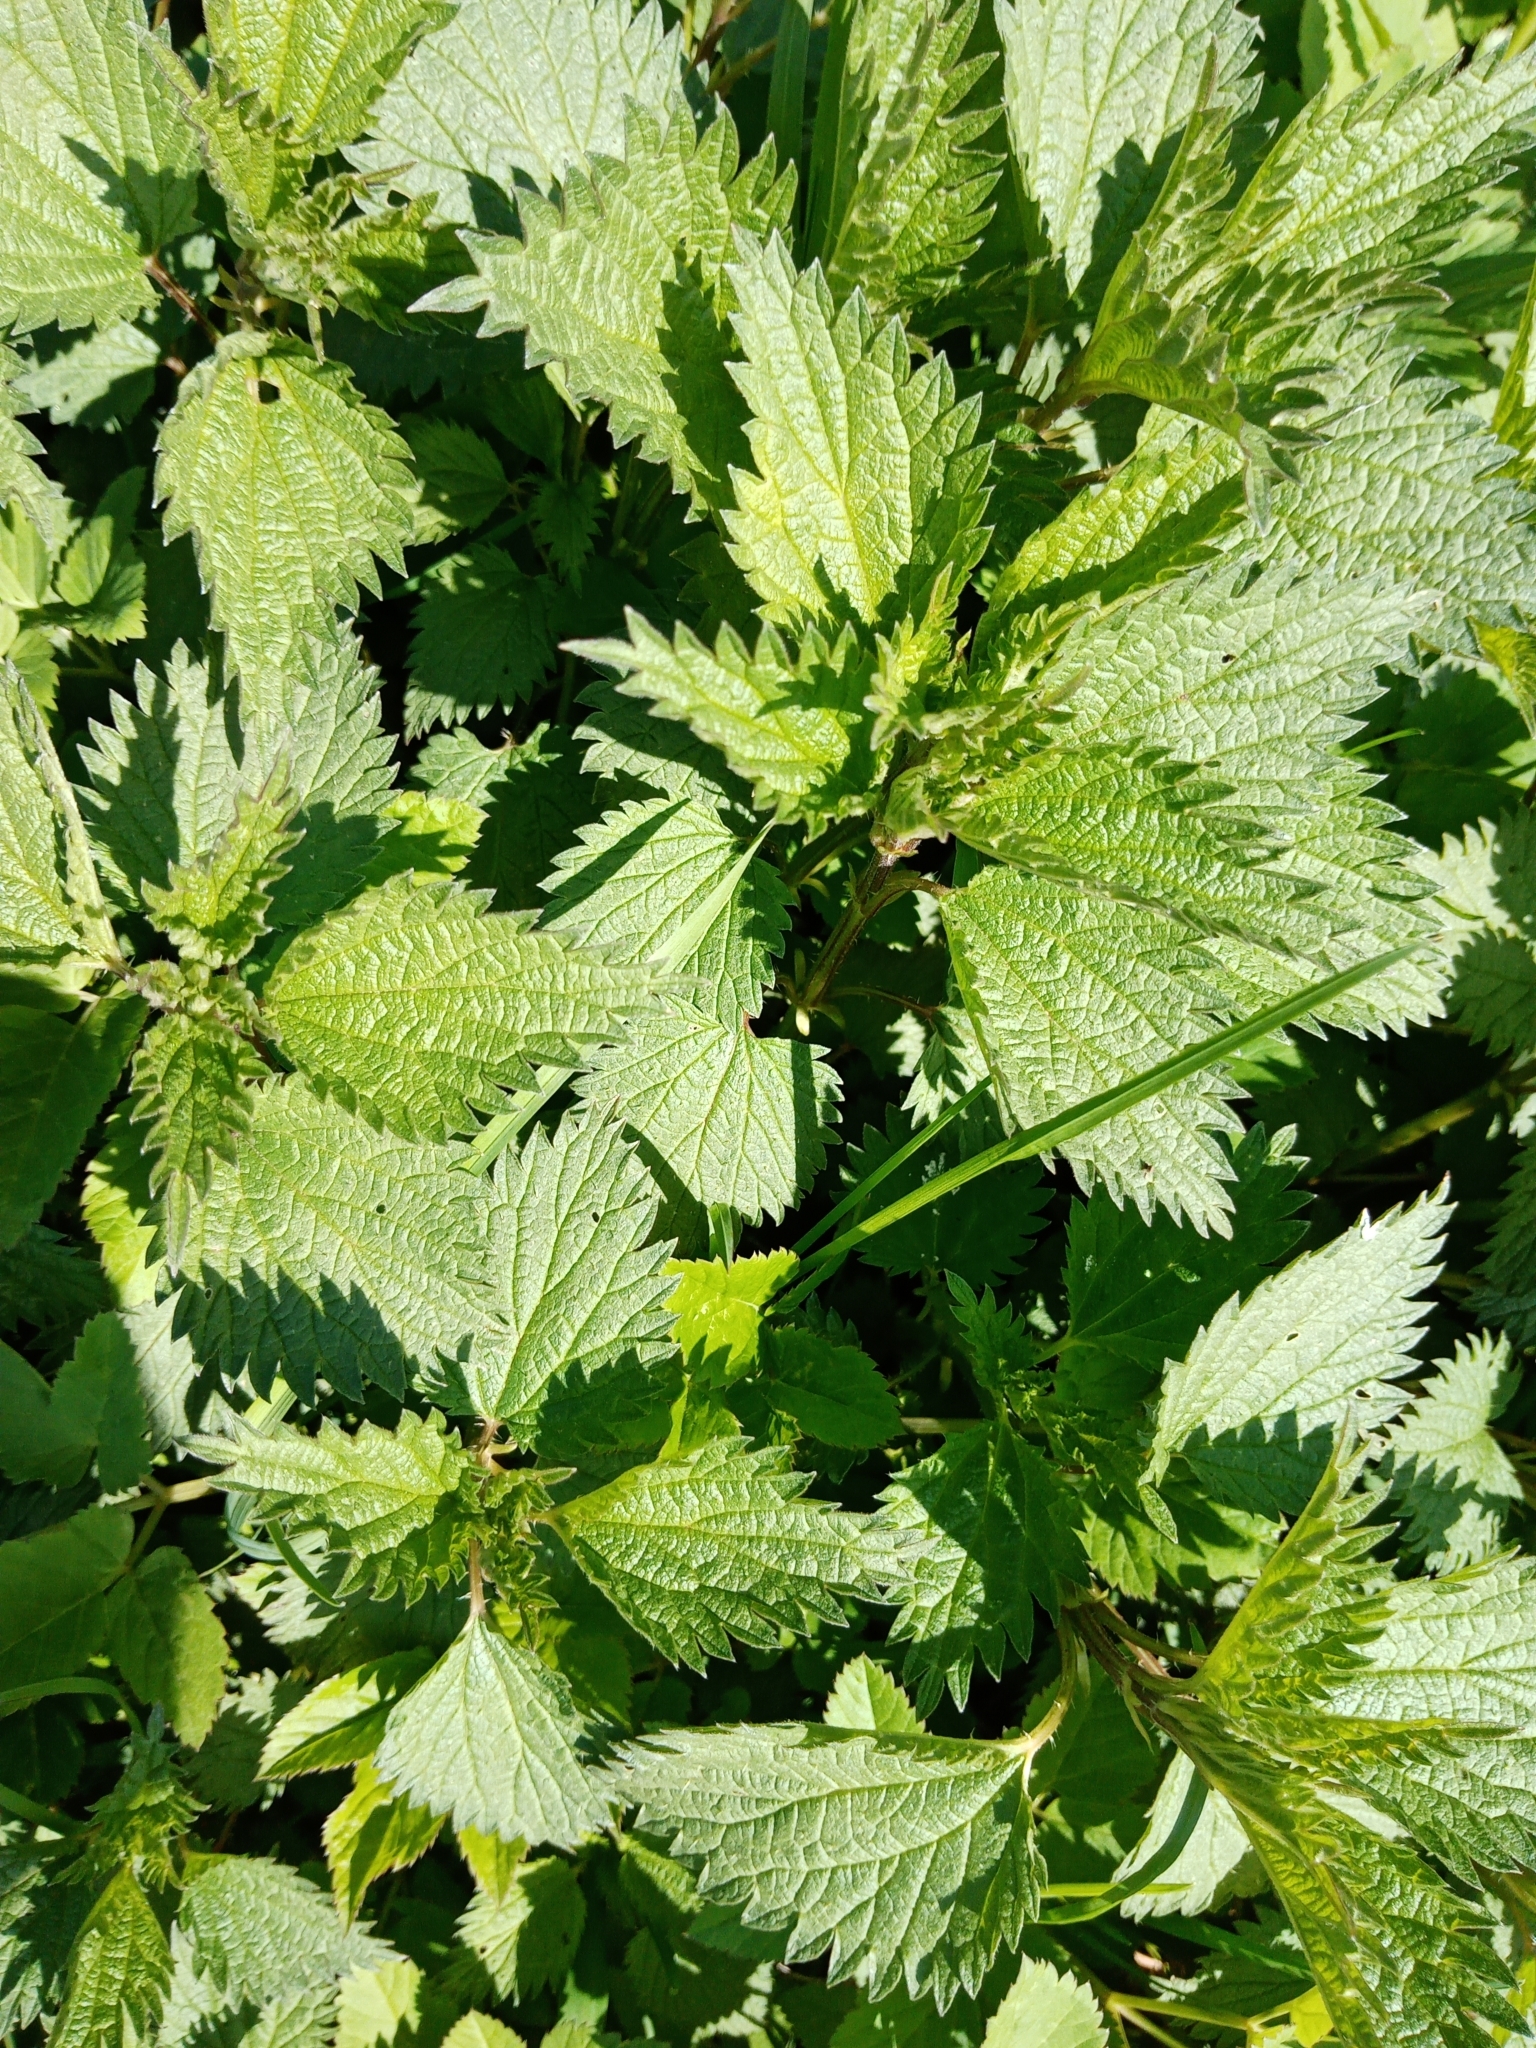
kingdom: Plantae
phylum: Tracheophyta
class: Magnoliopsida
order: Rosales
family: Urticaceae
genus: Urtica
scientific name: Urtica dioica
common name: Common nettle
